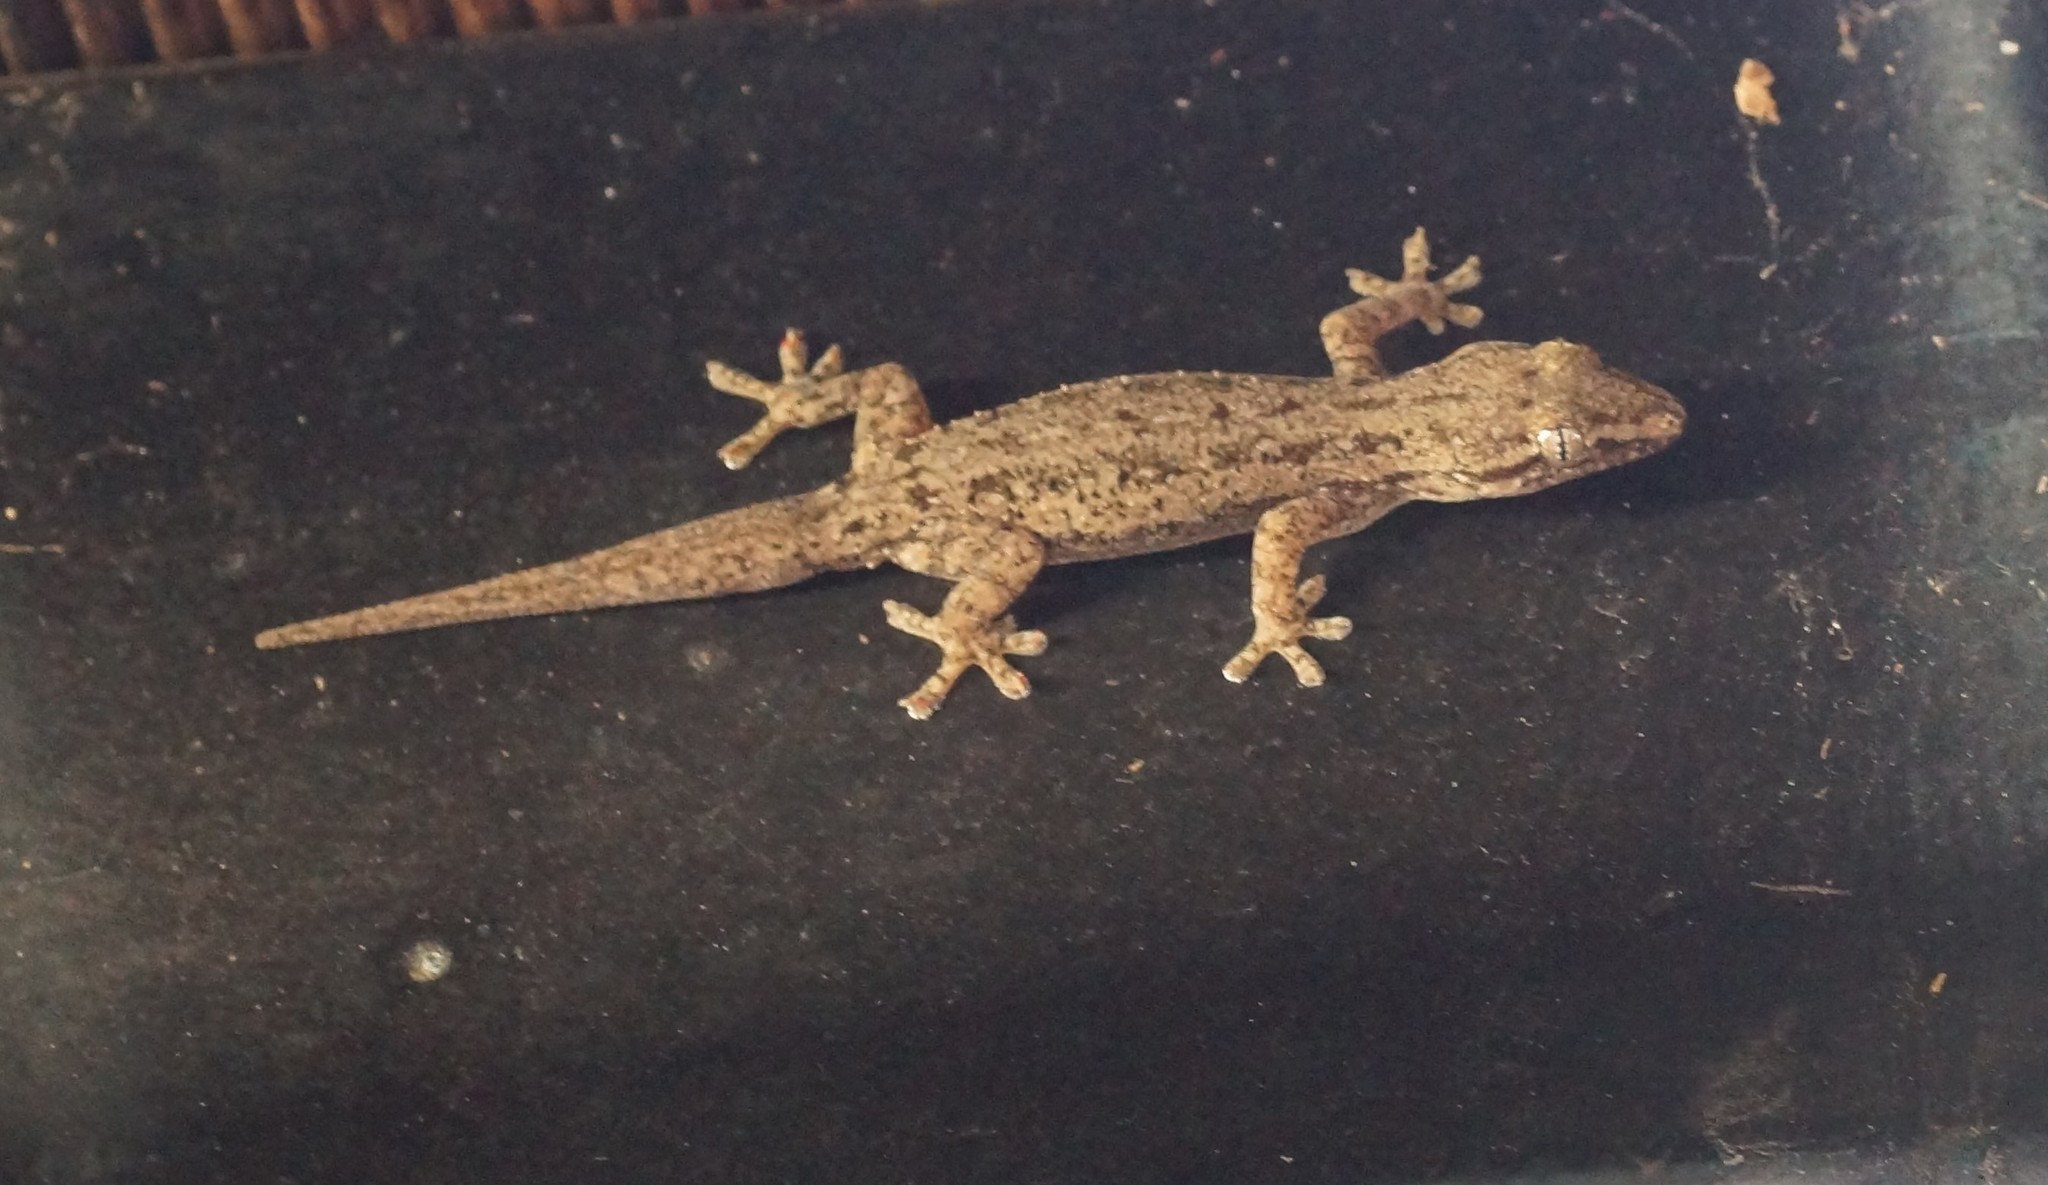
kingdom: Animalia
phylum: Chordata
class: Squamata
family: Gekkonidae
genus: Hemidactylus
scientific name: Hemidactylus frenatus
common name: Common house gecko
